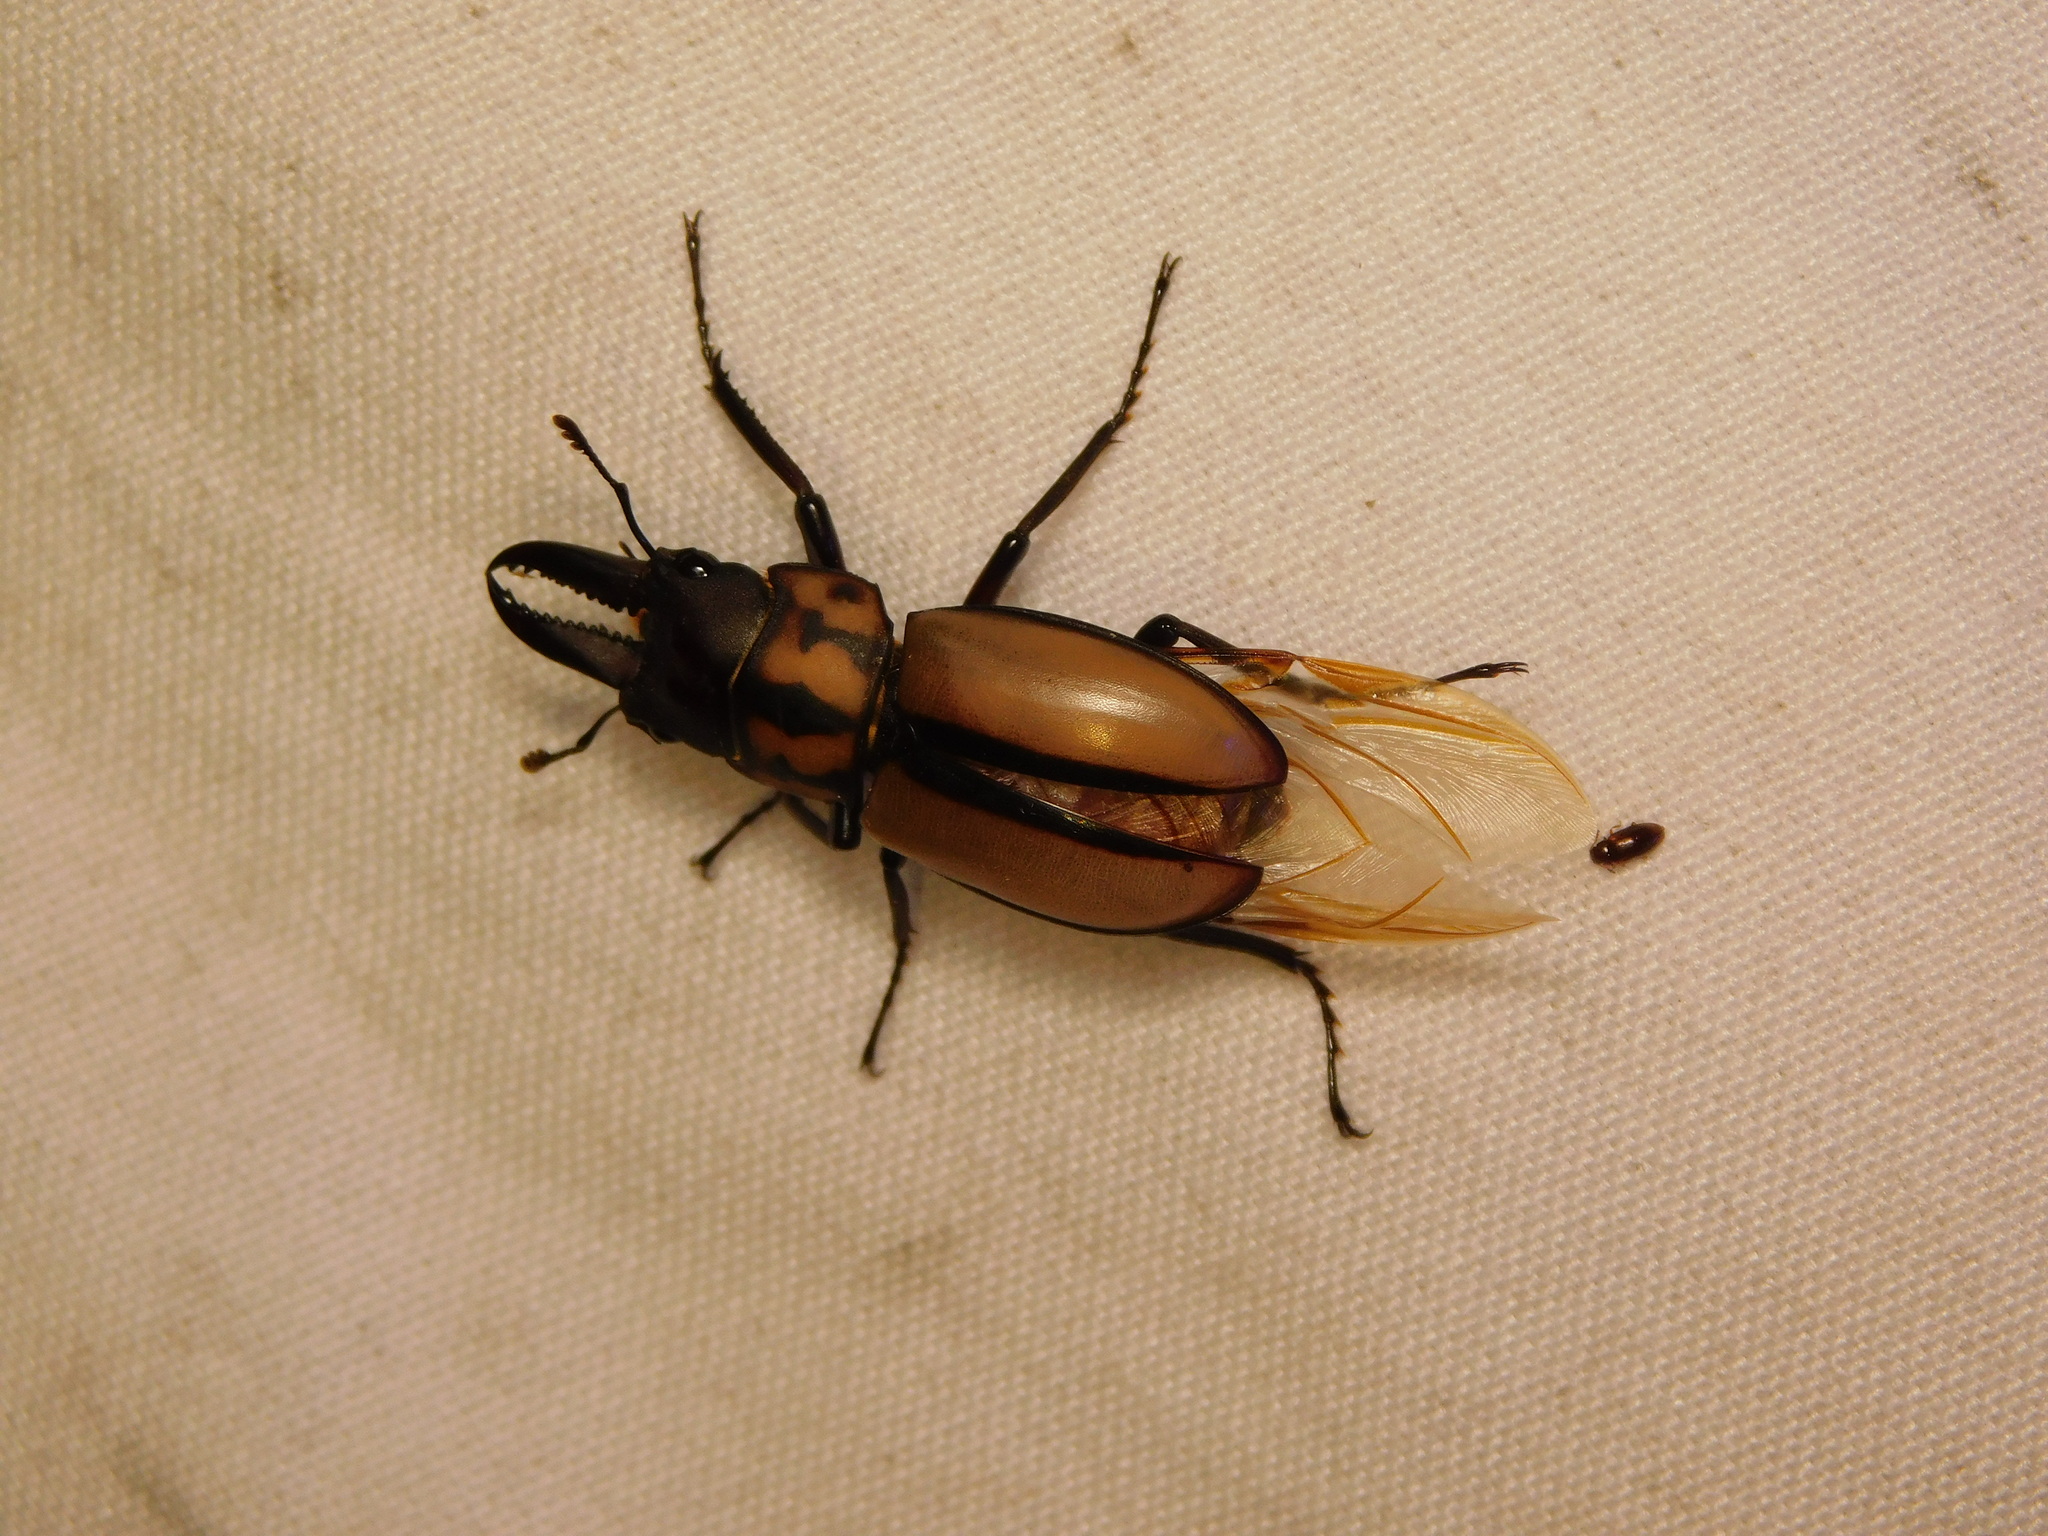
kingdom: Animalia
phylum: Arthropoda
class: Insecta
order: Coleoptera
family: Lucanidae
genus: Prosopocoilus
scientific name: Prosopocoilus histrio
